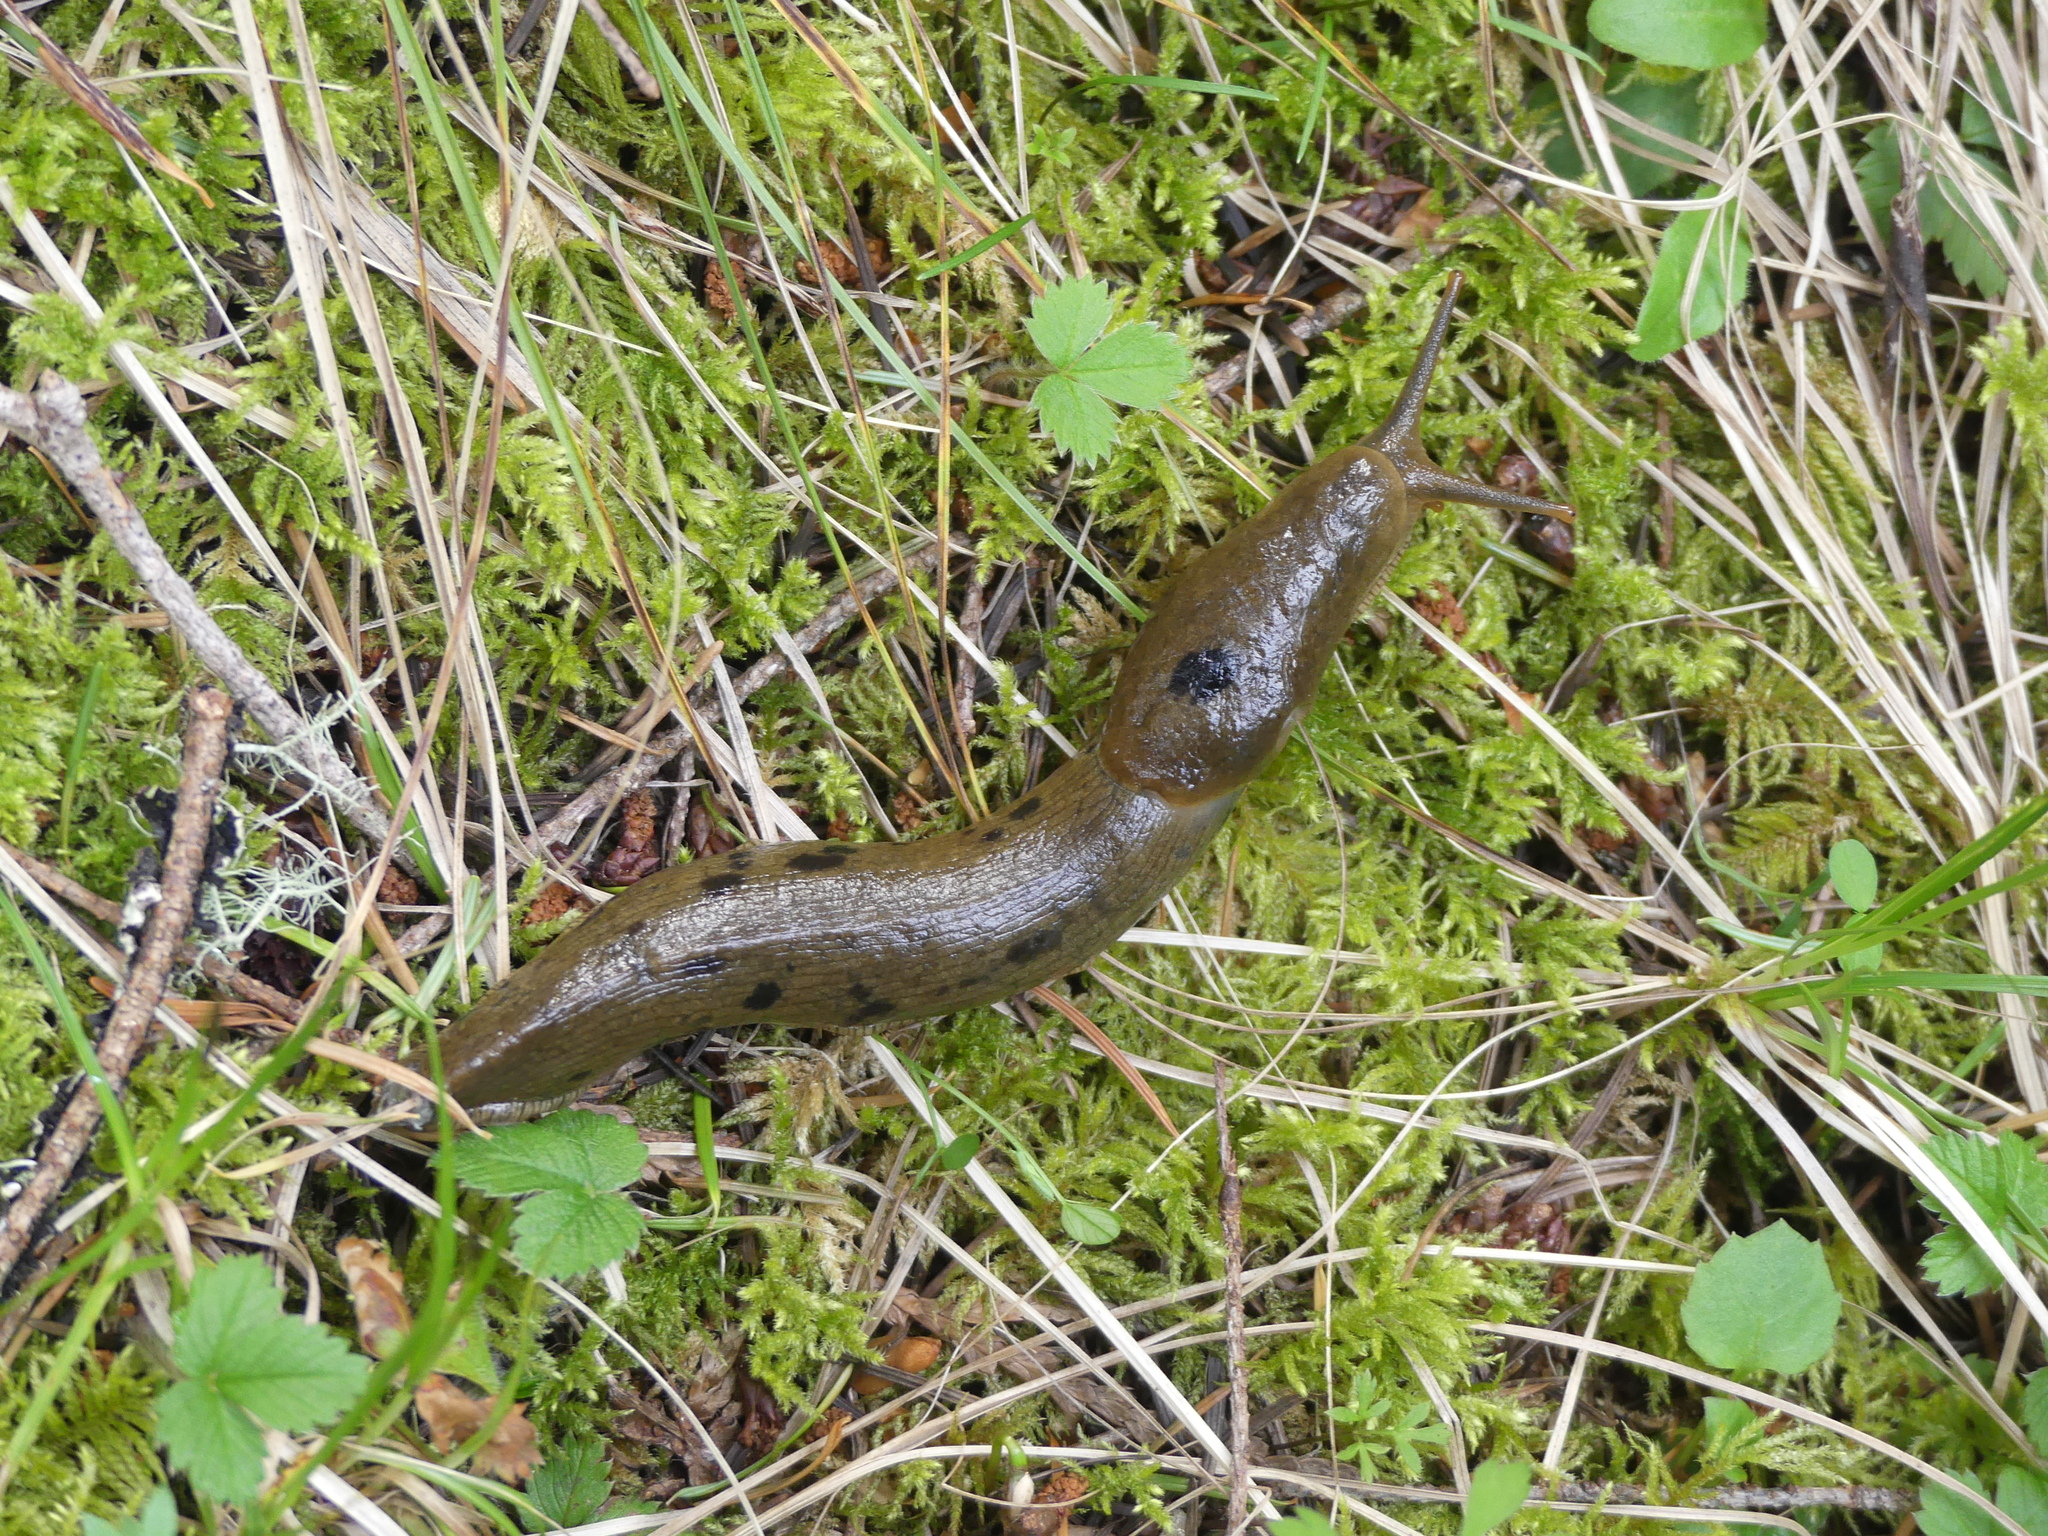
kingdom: Animalia
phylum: Mollusca
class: Gastropoda
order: Stylommatophora
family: Ariolimacidae
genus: Ariolimax
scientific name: Ariolimax columbianus
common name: Pacific banana slug
